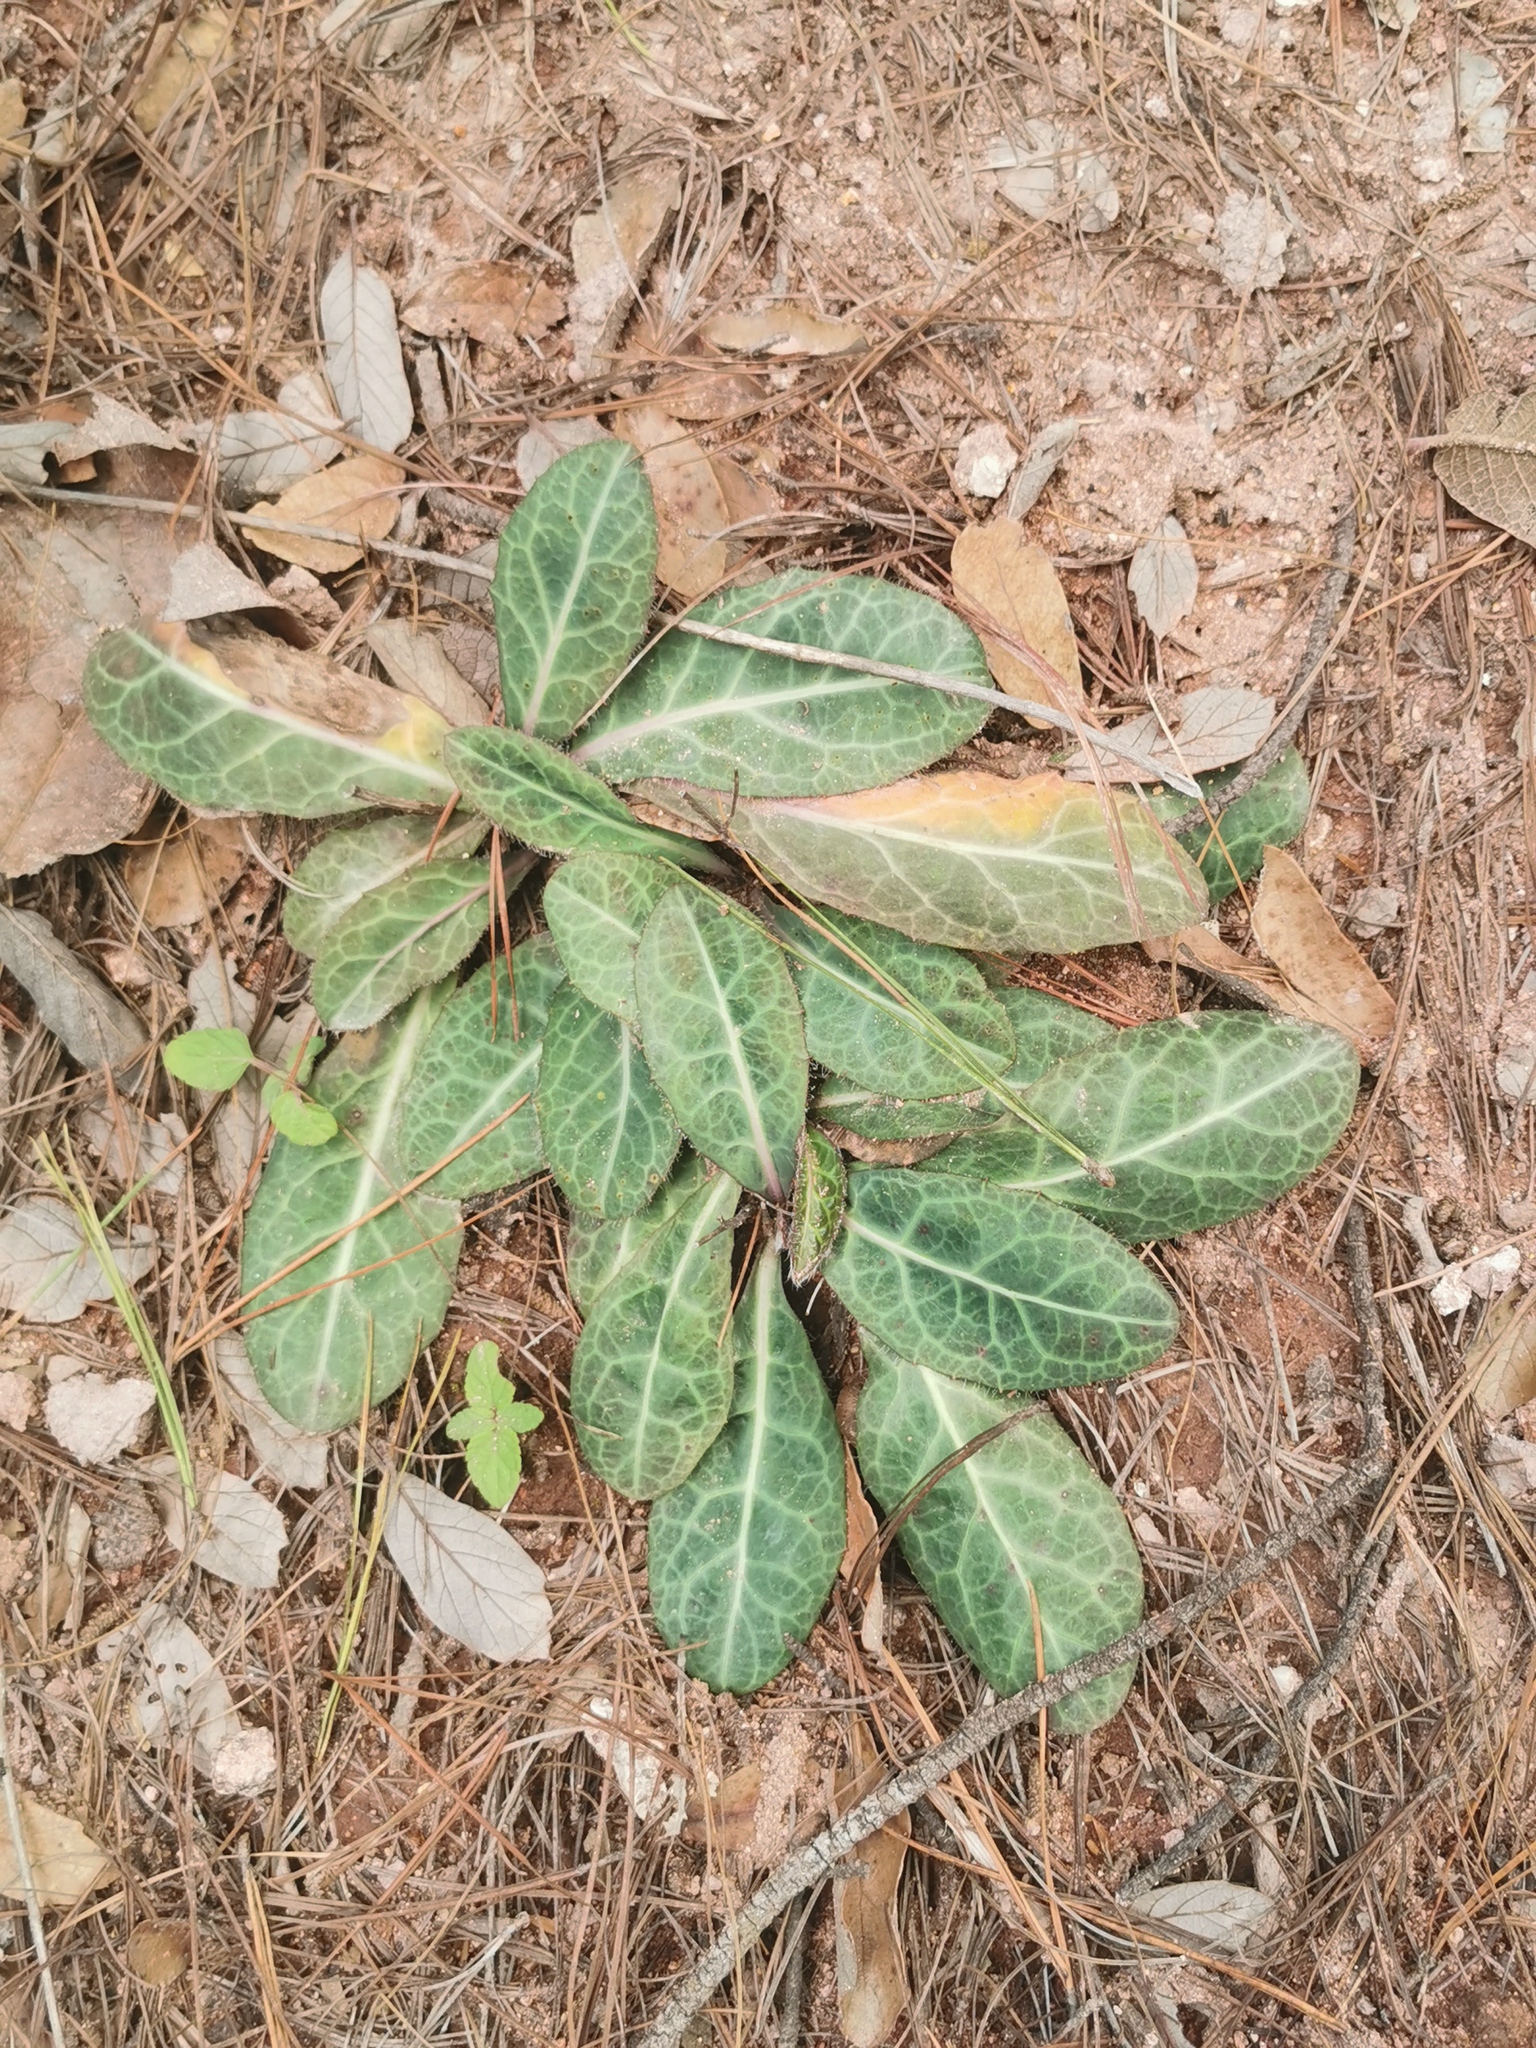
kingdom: Plantae
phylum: Tracheophyta
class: Magnoliopsida
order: Asterales
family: Asteraceae
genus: Hieracium
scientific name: Hieracium fendleri
